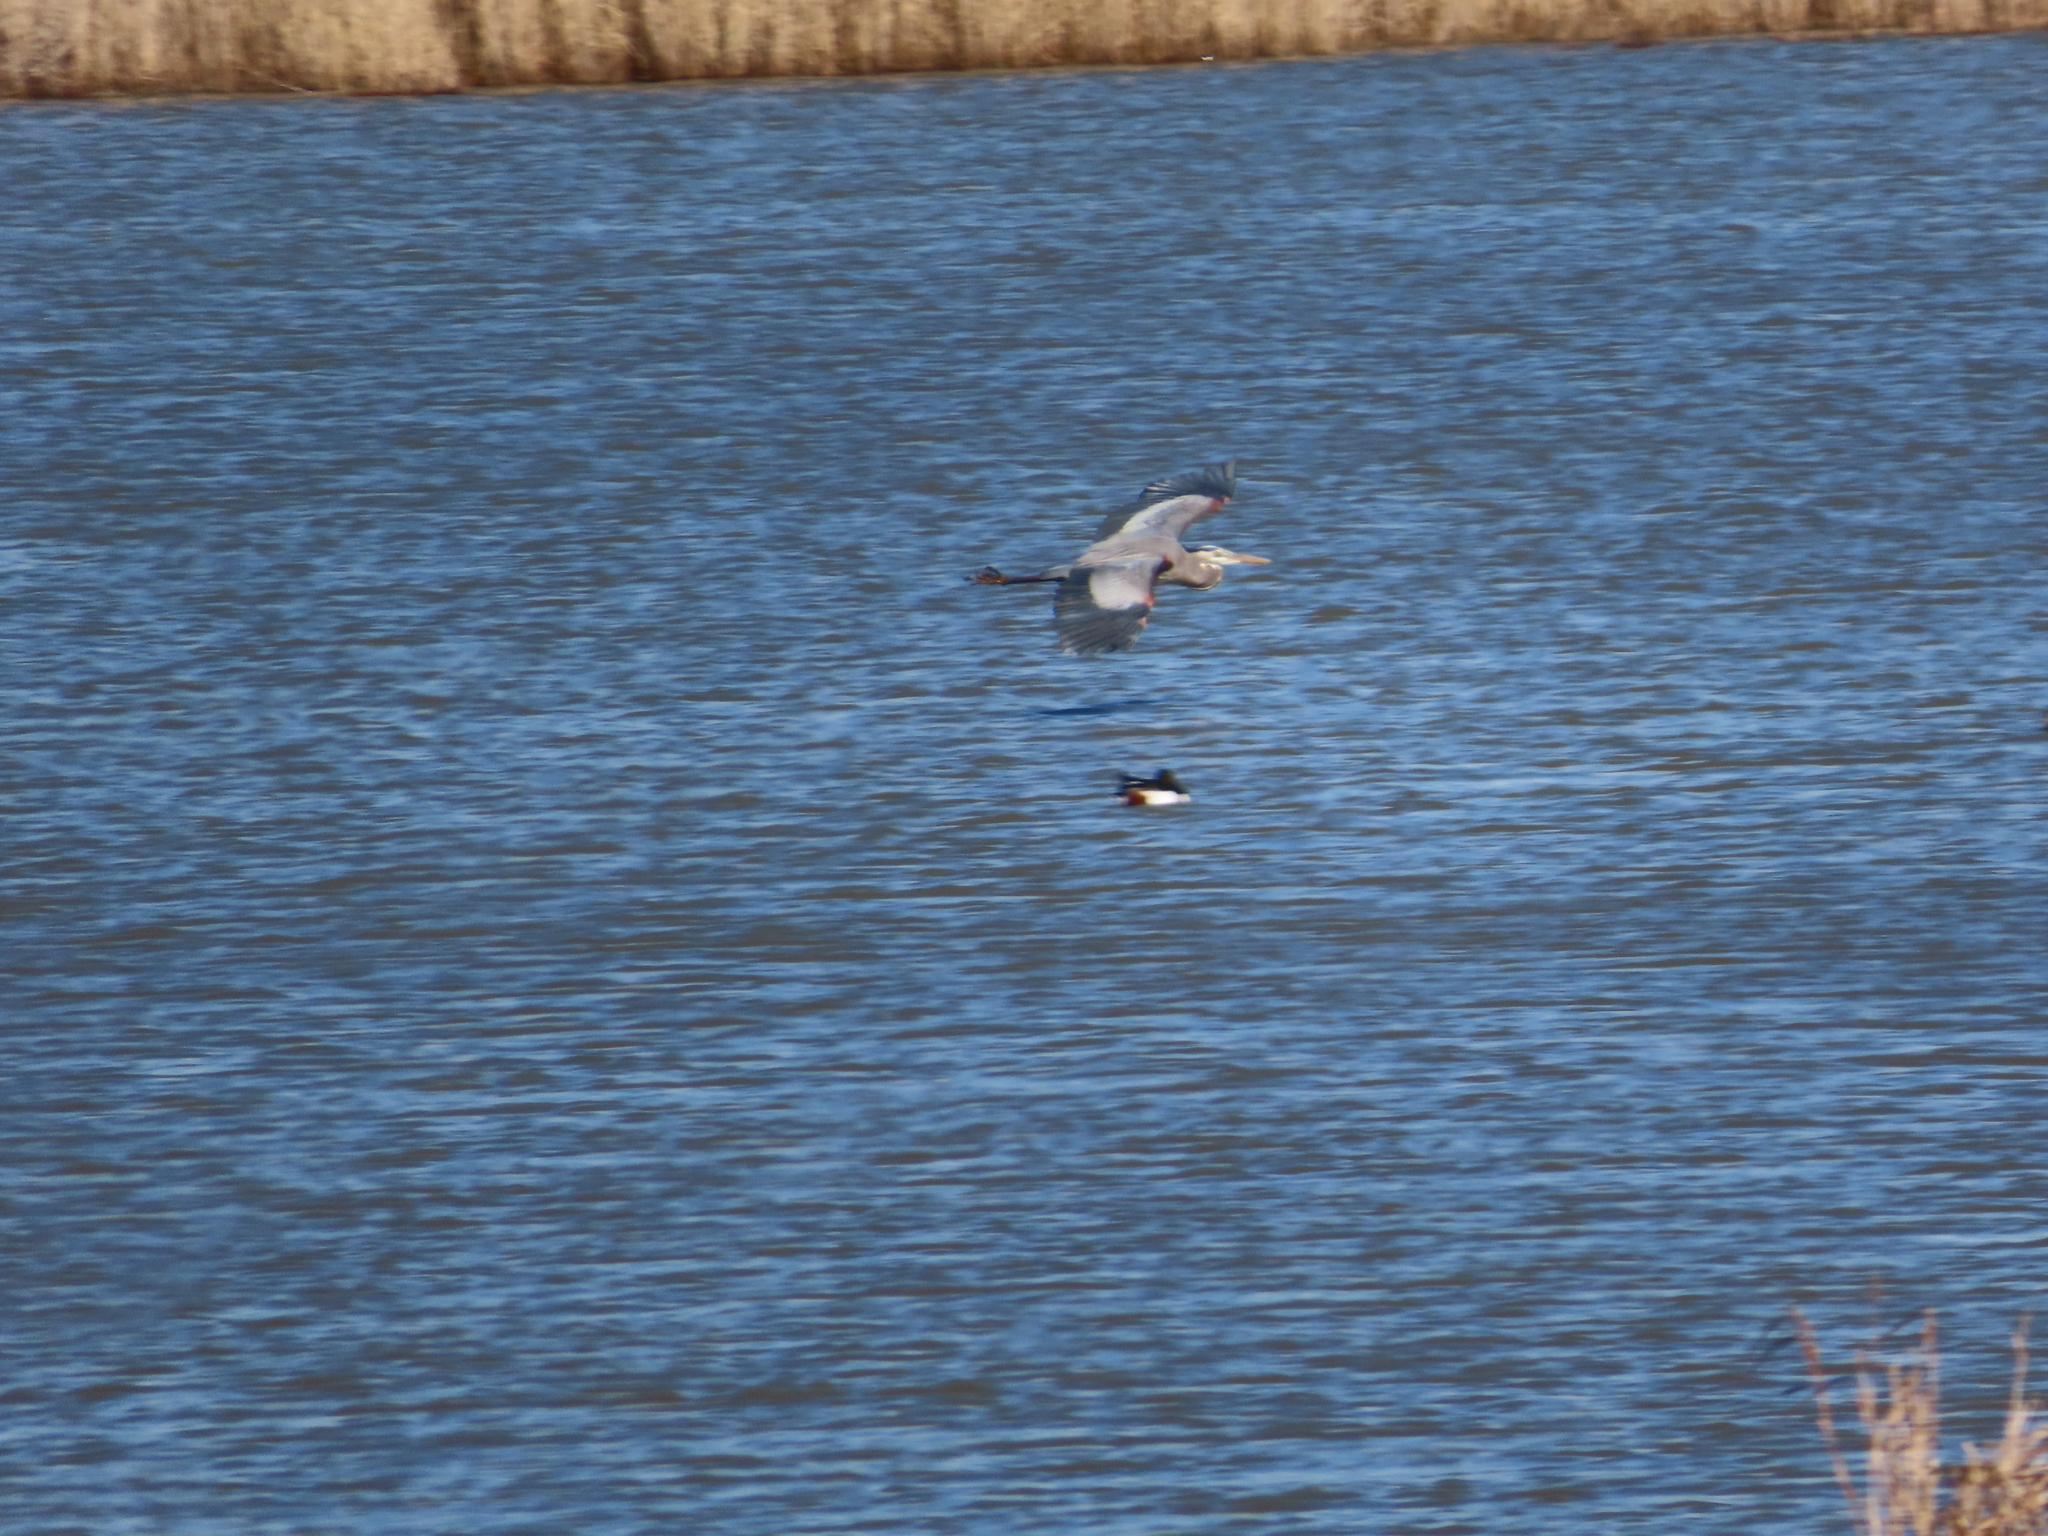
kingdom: Animalia
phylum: Chordata
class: Aves
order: Anseriformes
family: Anatidae
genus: Spatula
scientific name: Spatula clypeata
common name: Northern shoveler
